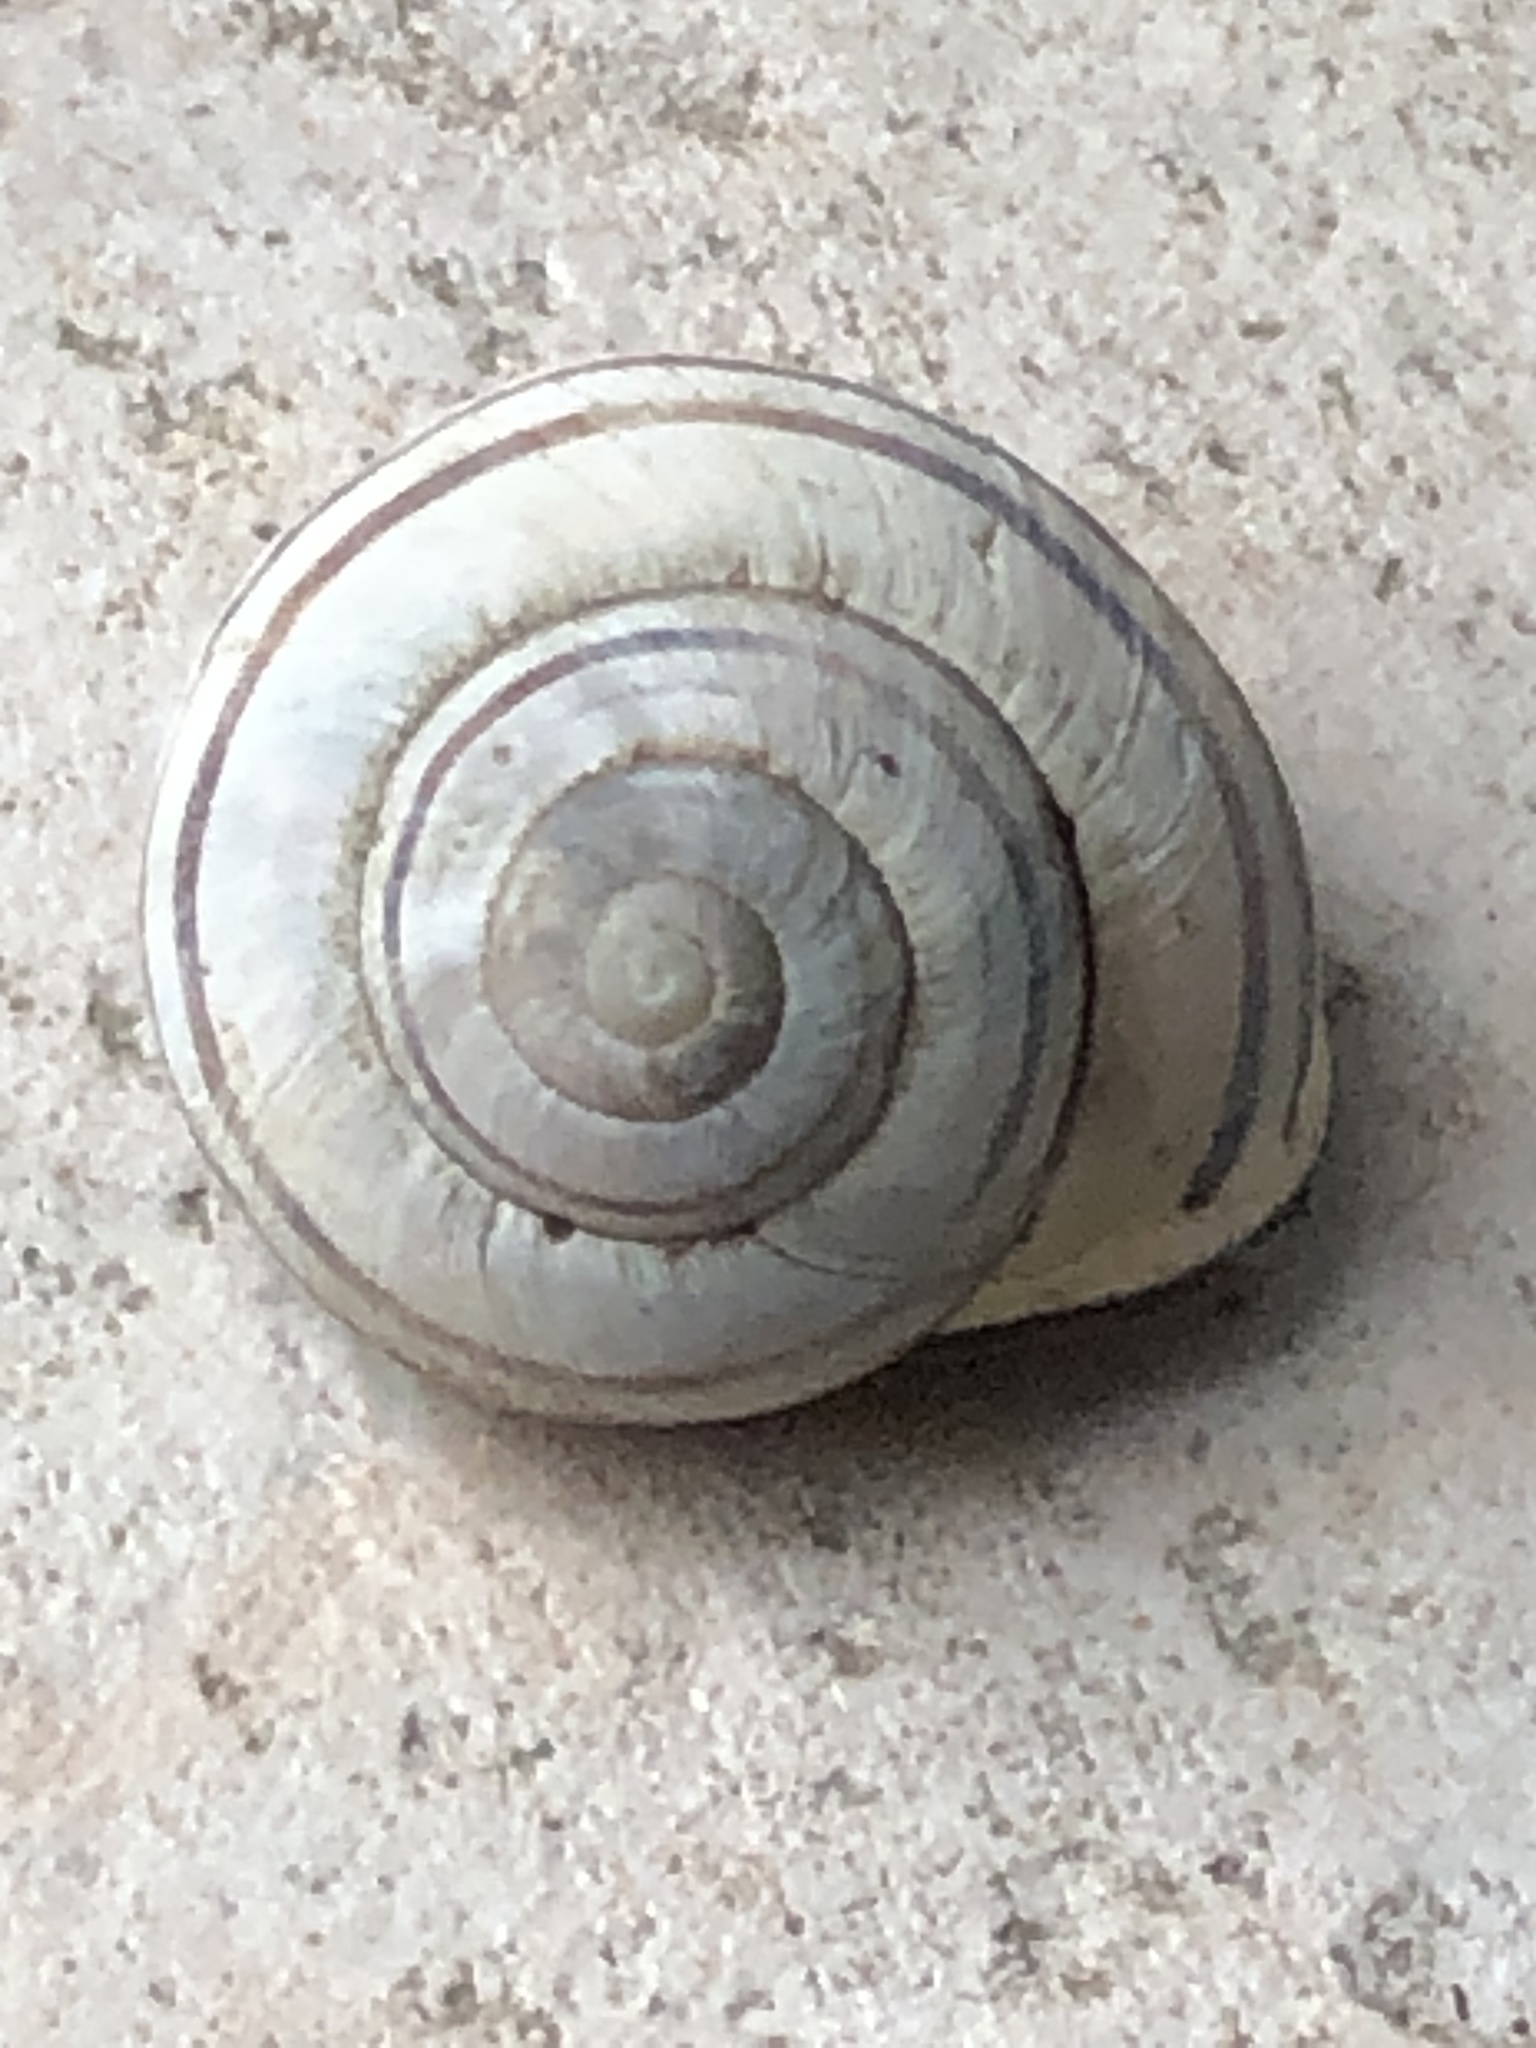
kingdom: Animalia
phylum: Mollusca
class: Gastropoda
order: Stylommatophora
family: Helicidae
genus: Cepaea
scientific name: Cepaea nemoralis
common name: Grovesnail
